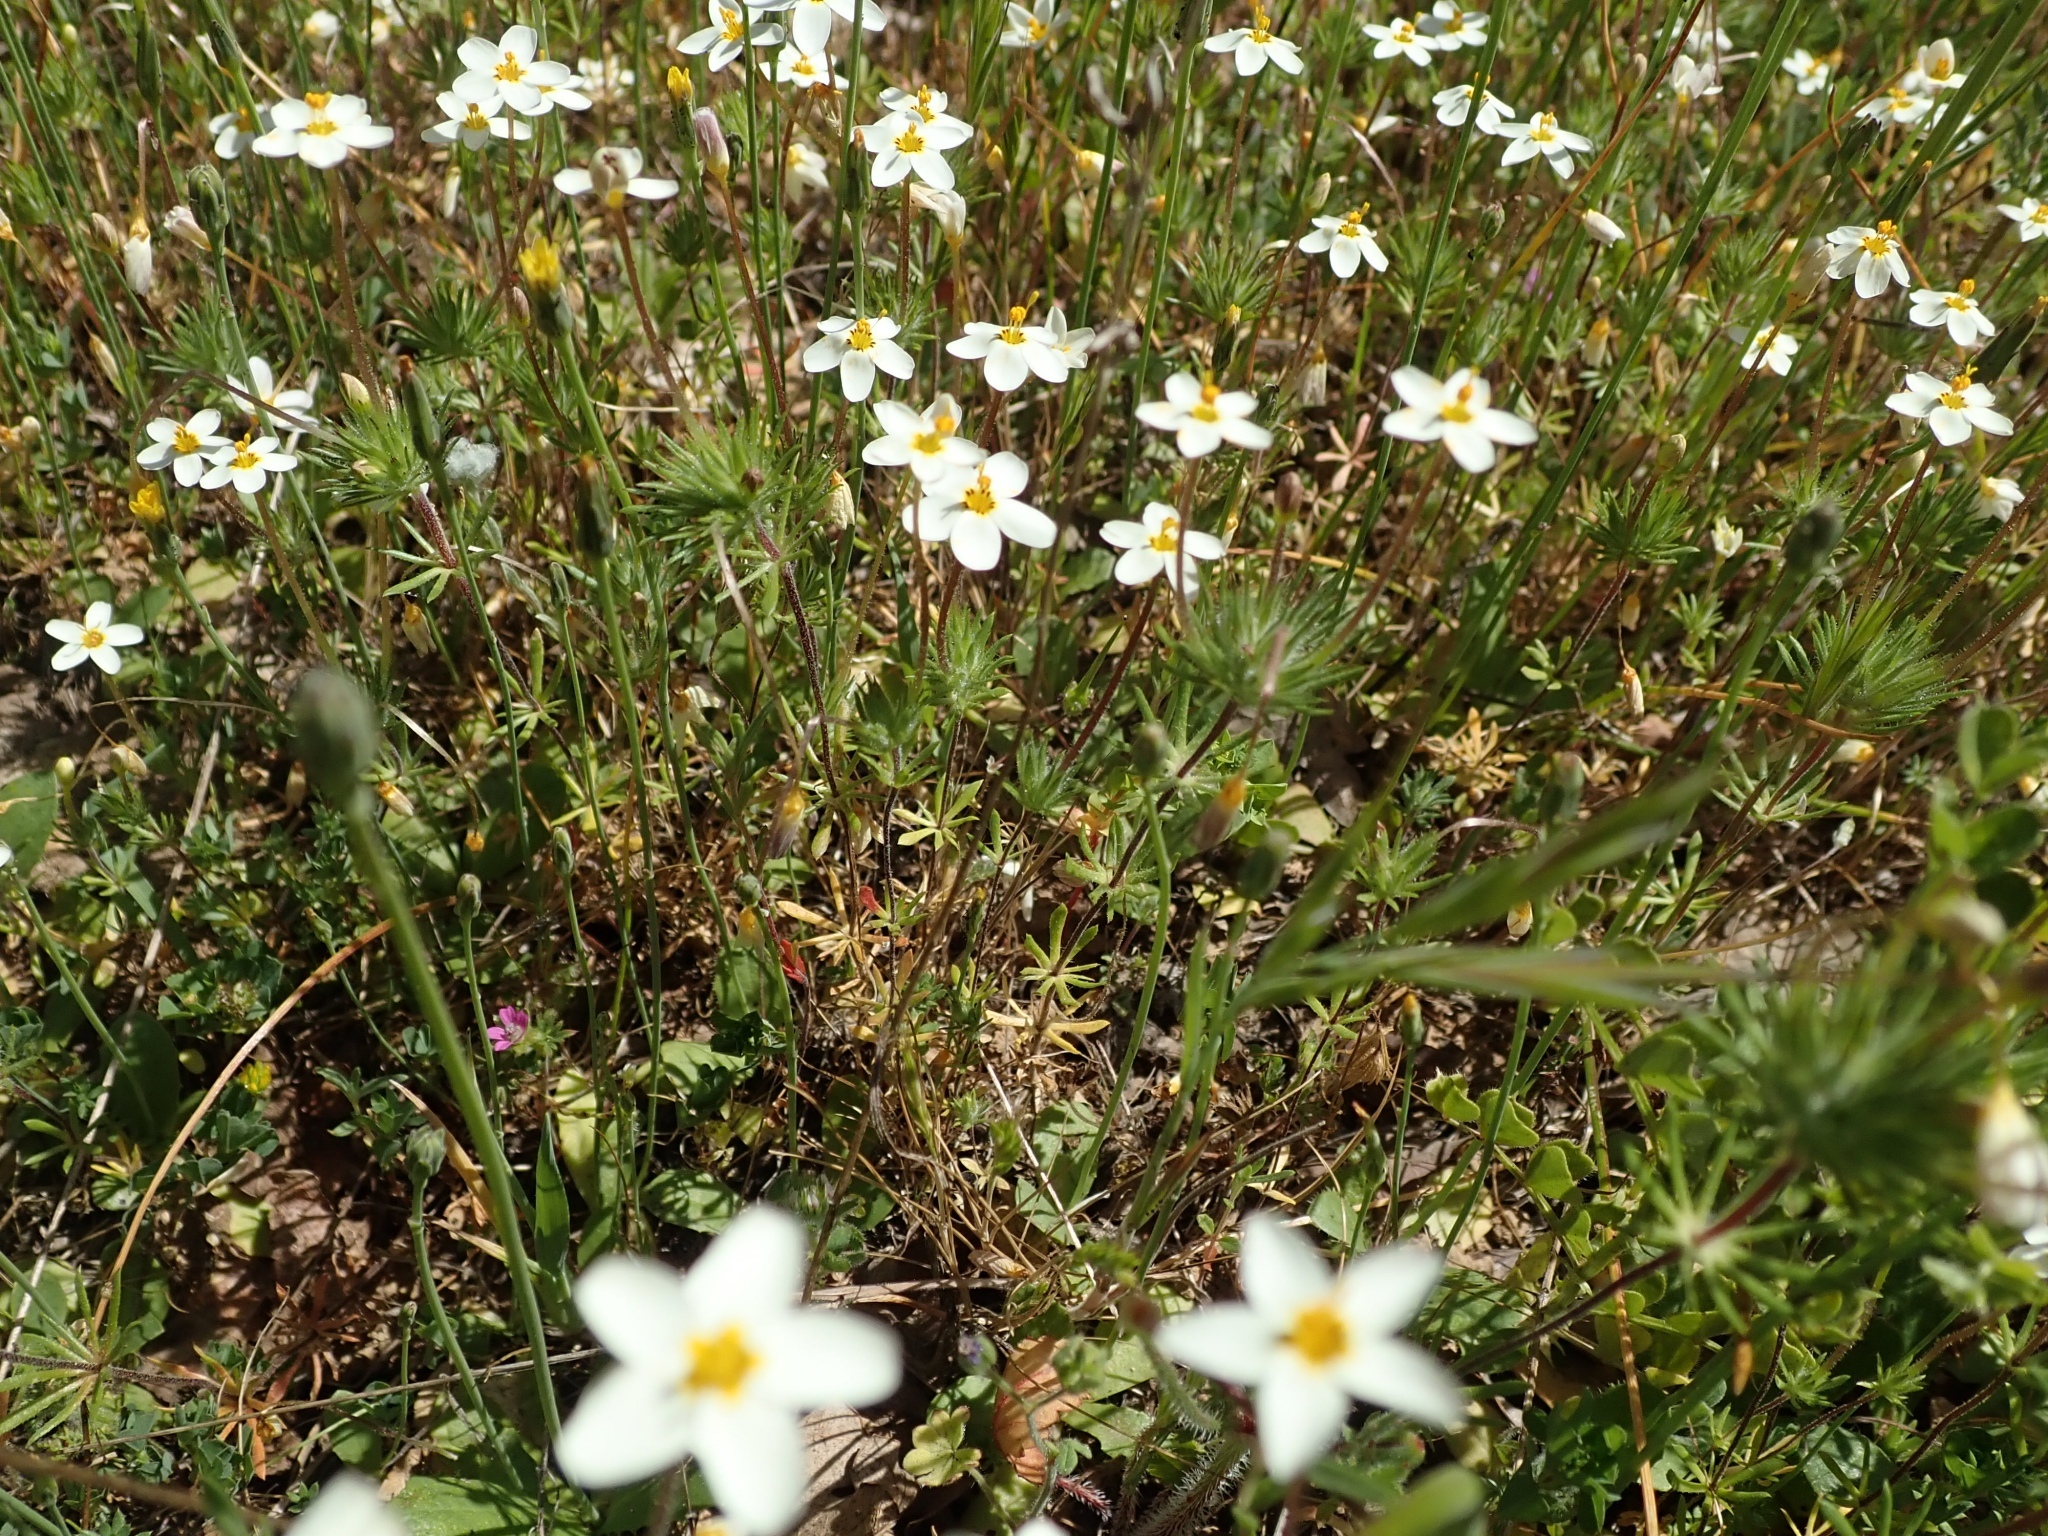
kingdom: Plantae
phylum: Tracheophyta
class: Magnoliopsida
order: Ericales
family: Polemoniaceae
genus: Leptosiphon
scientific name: Leptosiphon parviflorus
